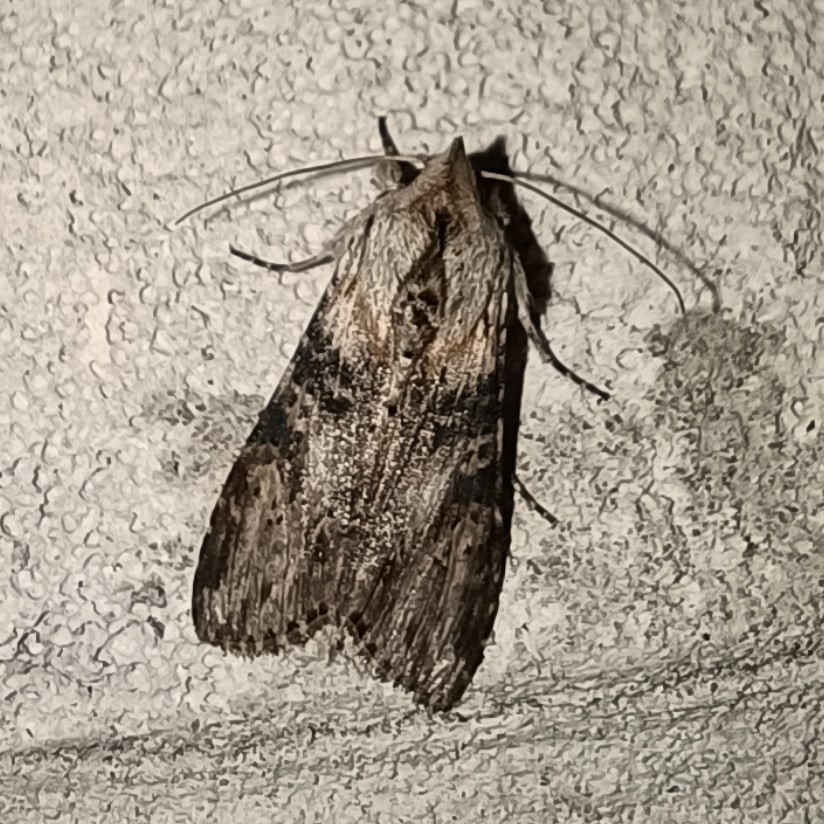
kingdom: Animalia
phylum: Arthropoda
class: Insecta
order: Lepidoptera
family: Noctuidae
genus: Cucullia
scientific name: Cucullia absinthii
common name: Wormwood
